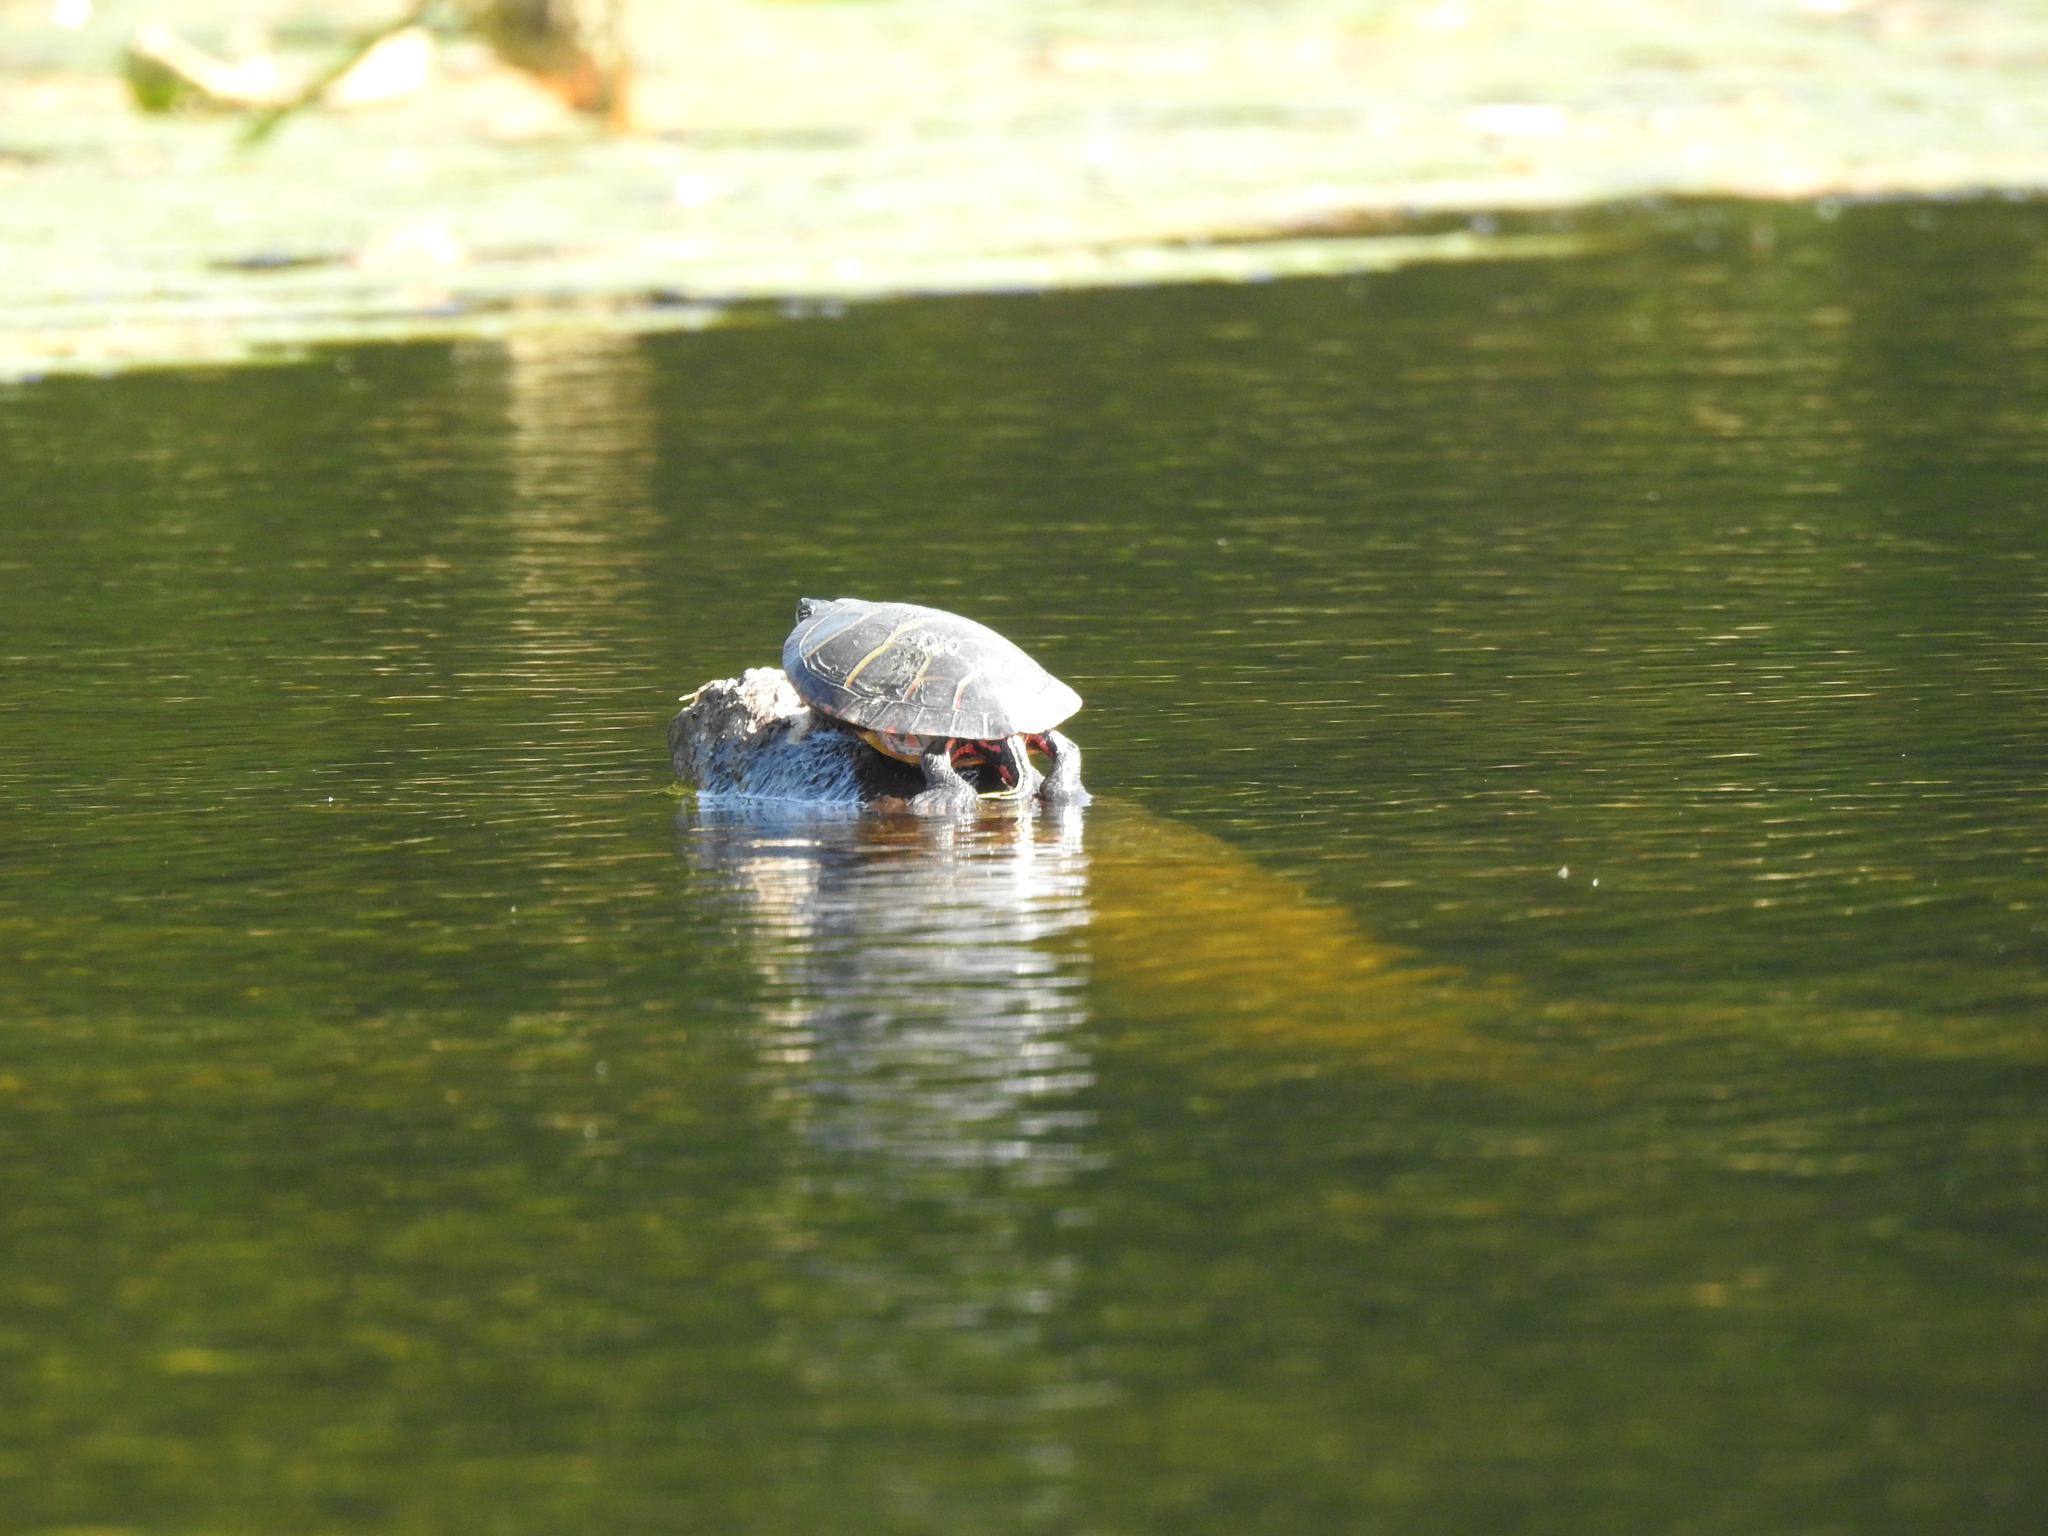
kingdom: Animalia
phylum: Chordata
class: Testudines
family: Emydidae
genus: Chrysemys
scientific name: Chrysemys picta
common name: Painted turtle
